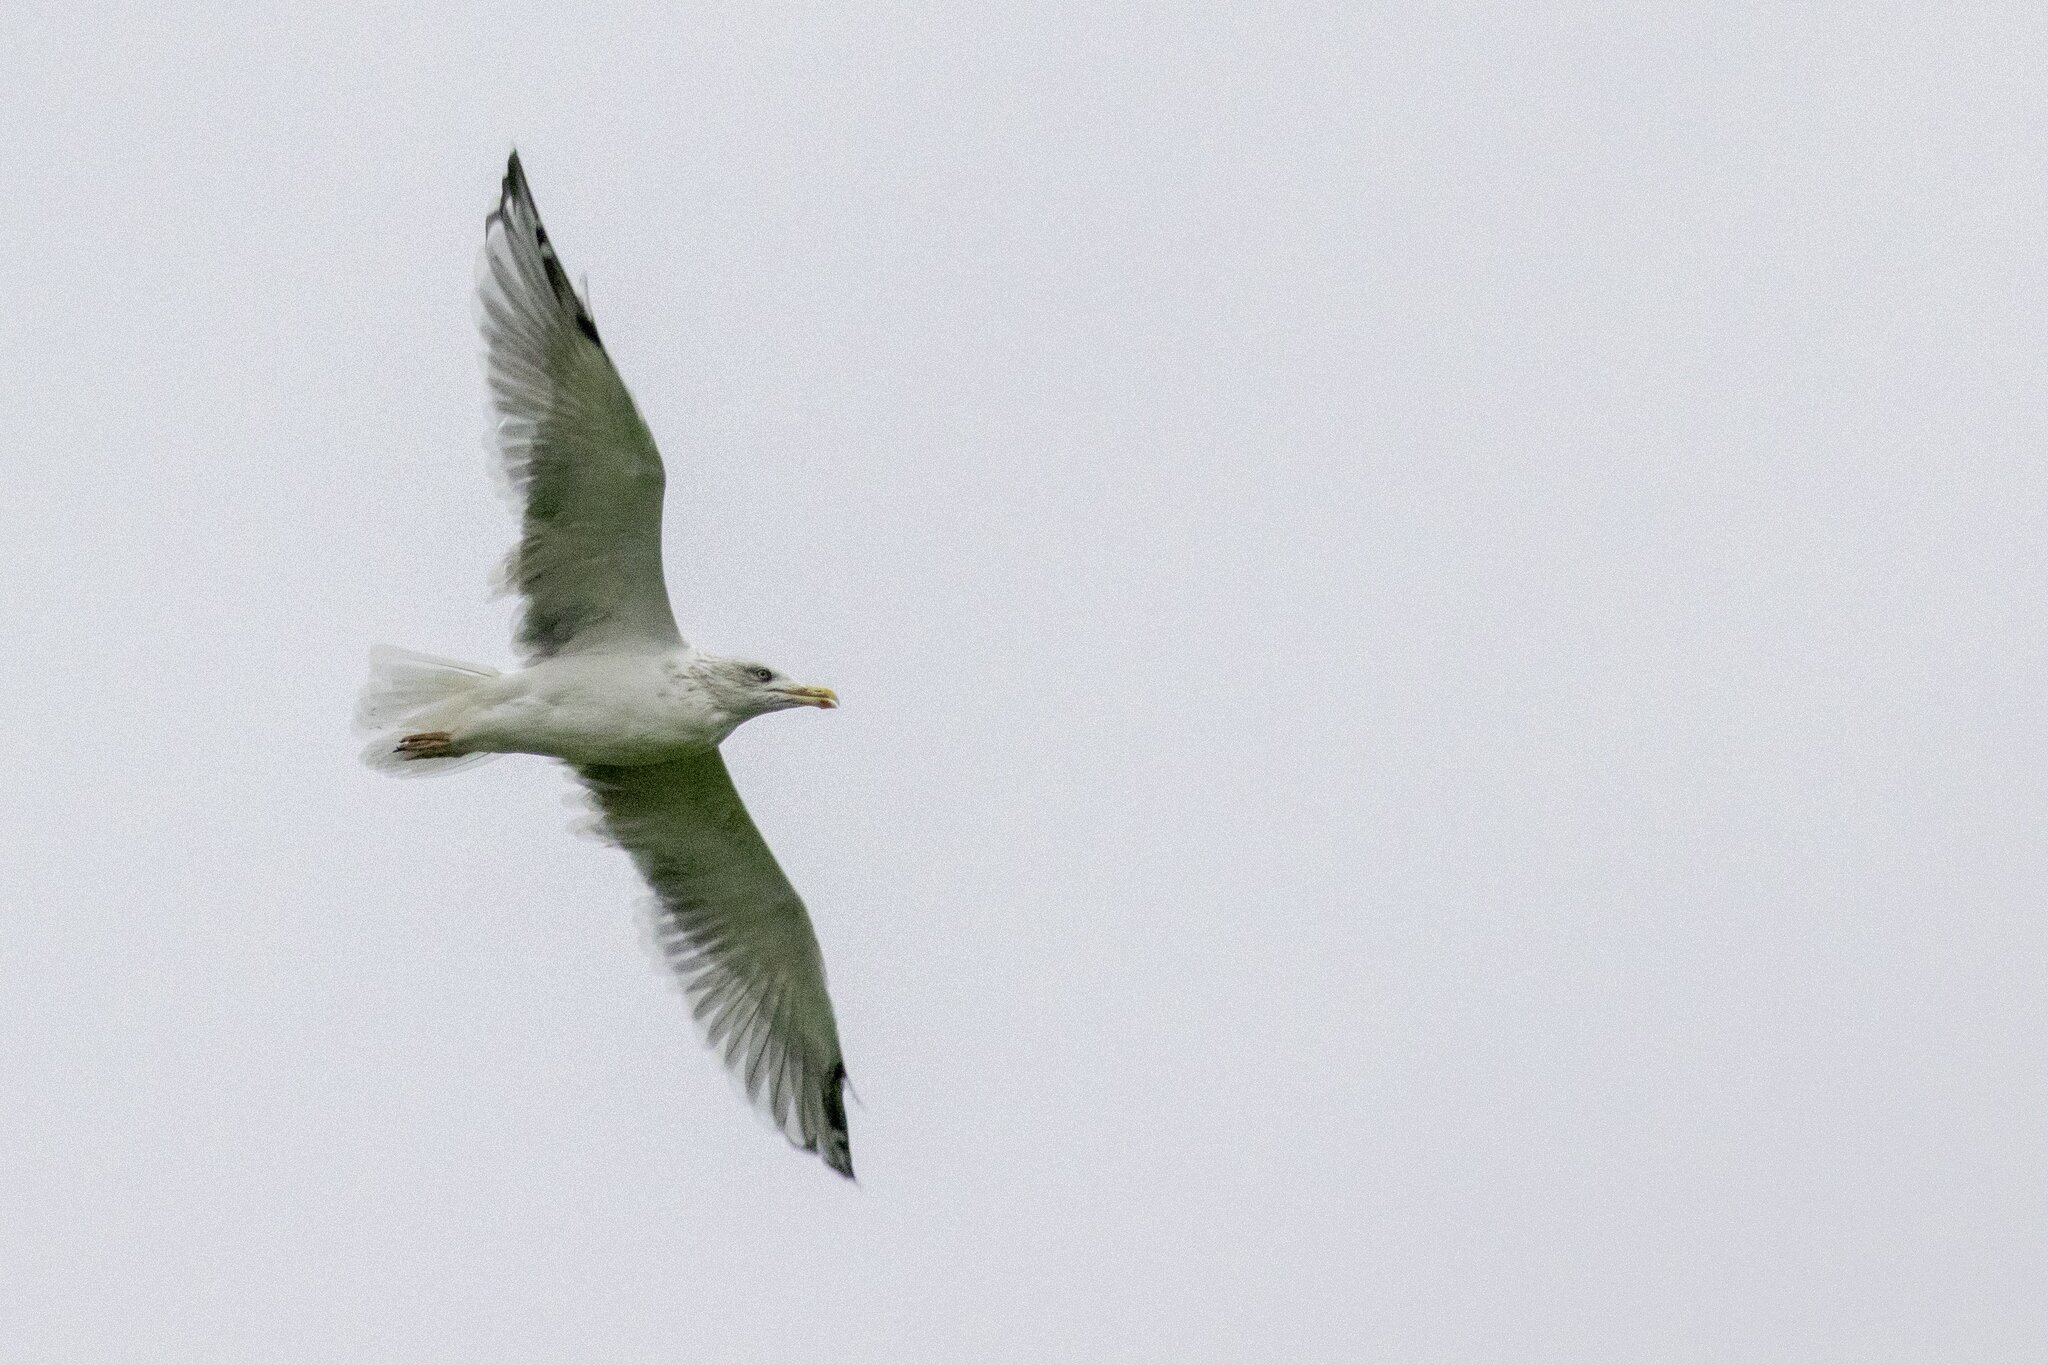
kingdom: Animalia
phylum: Chordata
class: Aves
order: Charadriiformes
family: Laridae
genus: Larus
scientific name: Larus argentatus
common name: Herring gull
